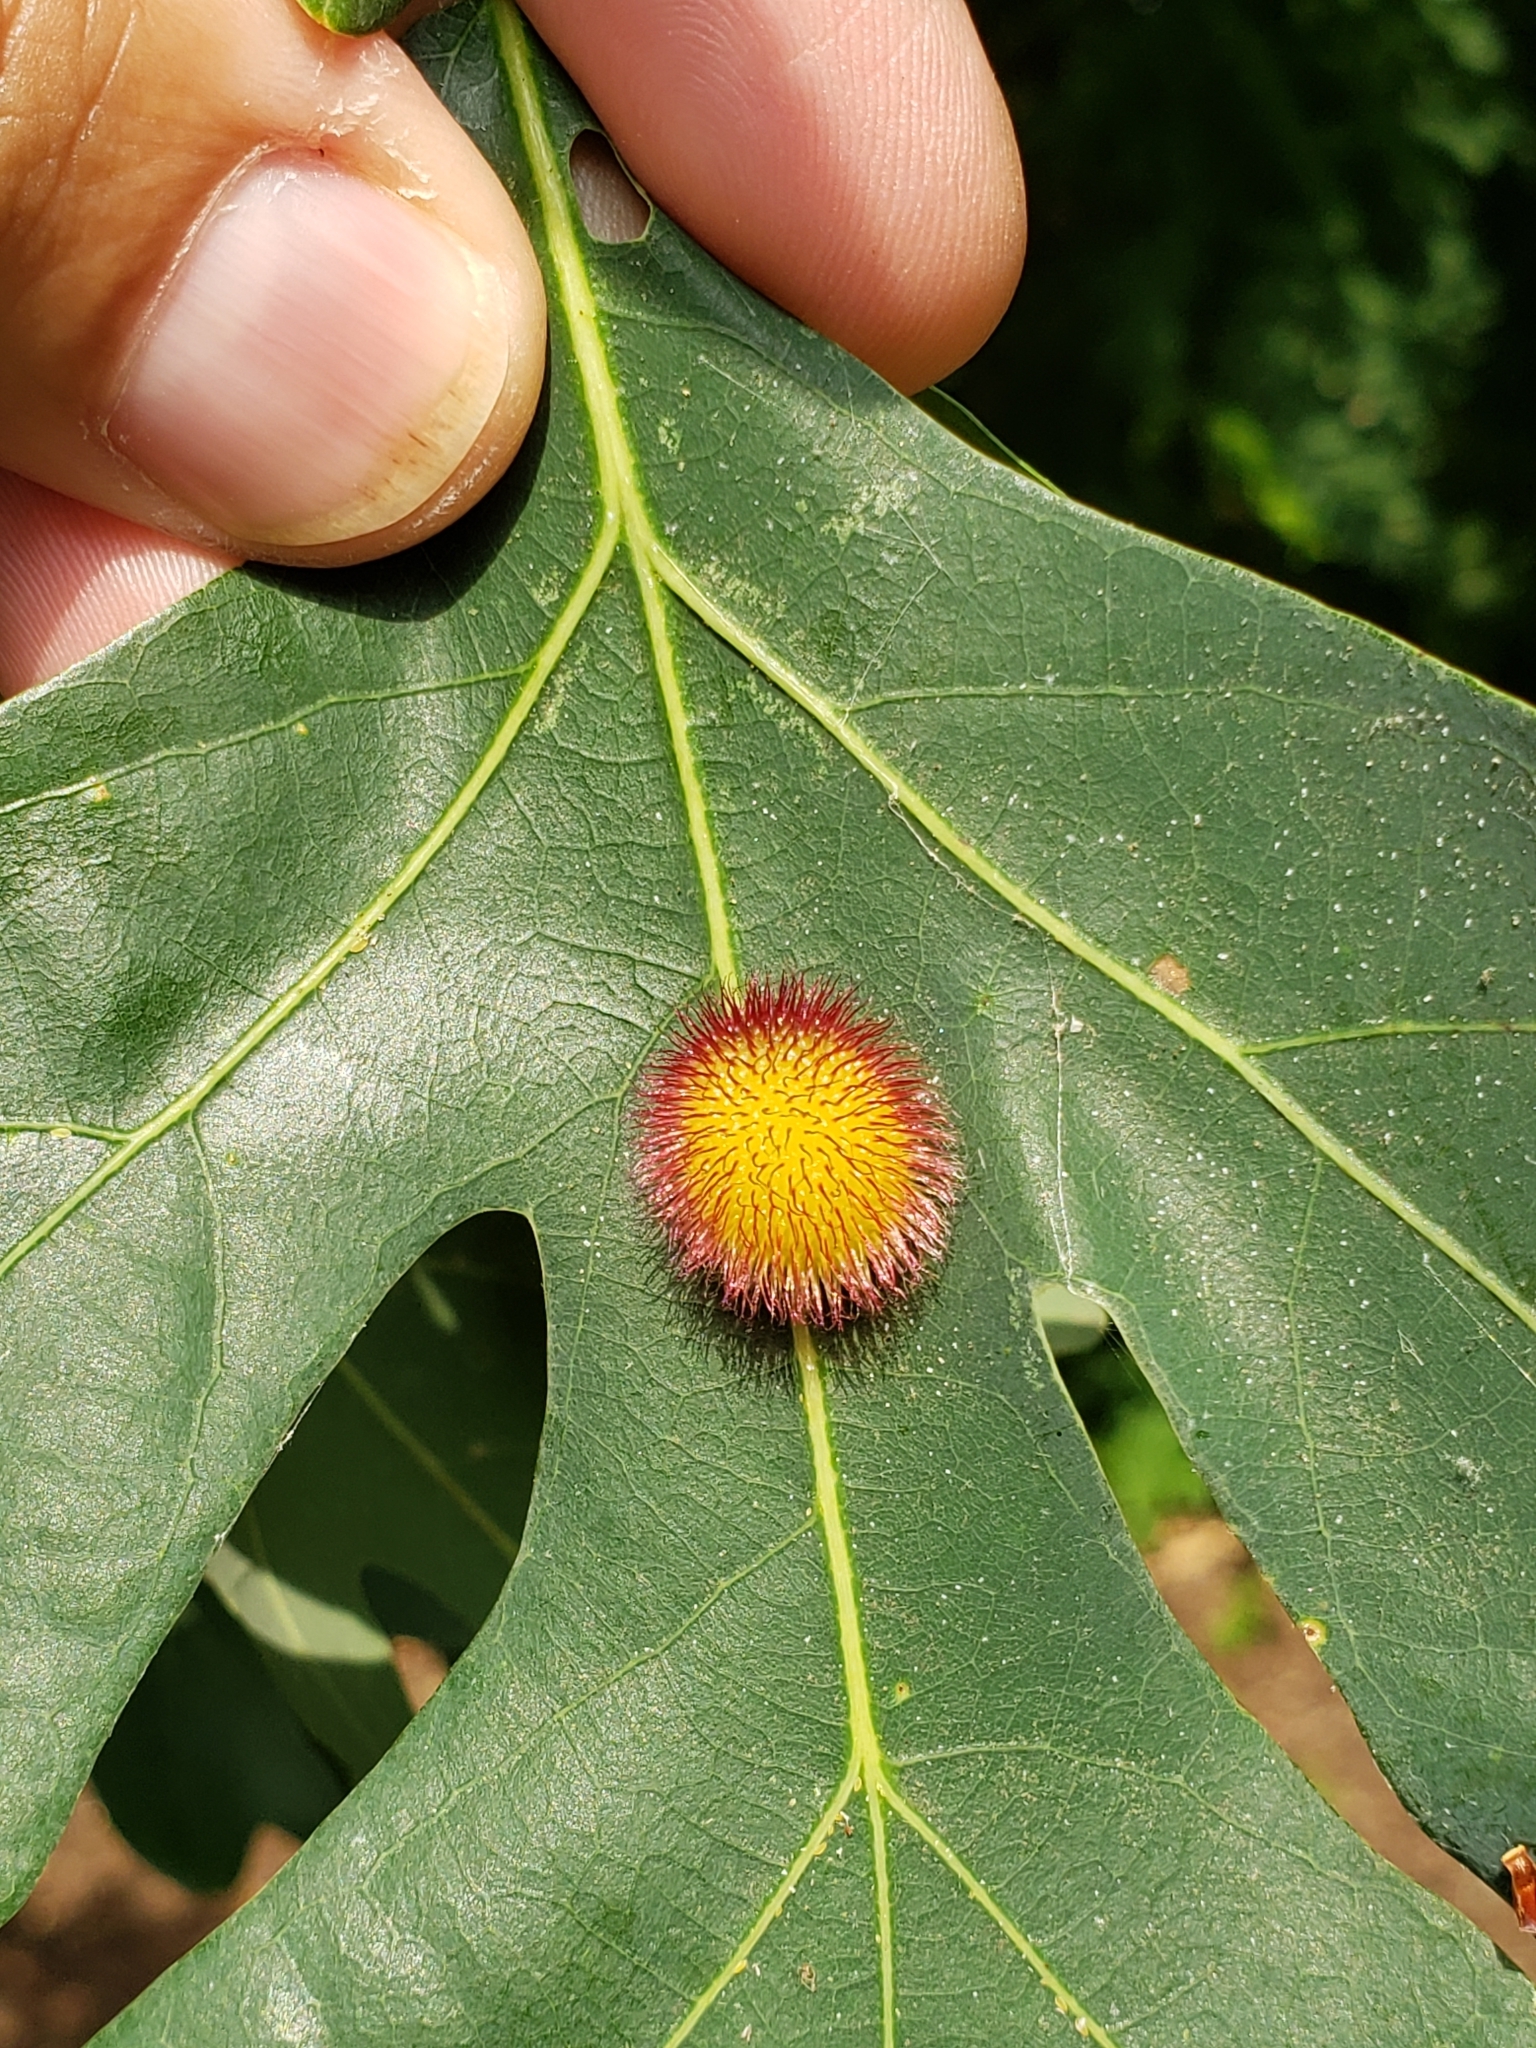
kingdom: Animalia
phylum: Arthropoda
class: Insecta
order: Hymenoptera
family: Cynipidae
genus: Acraspis
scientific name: Acraspis erinacei
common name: Hedgehog gall wasp
